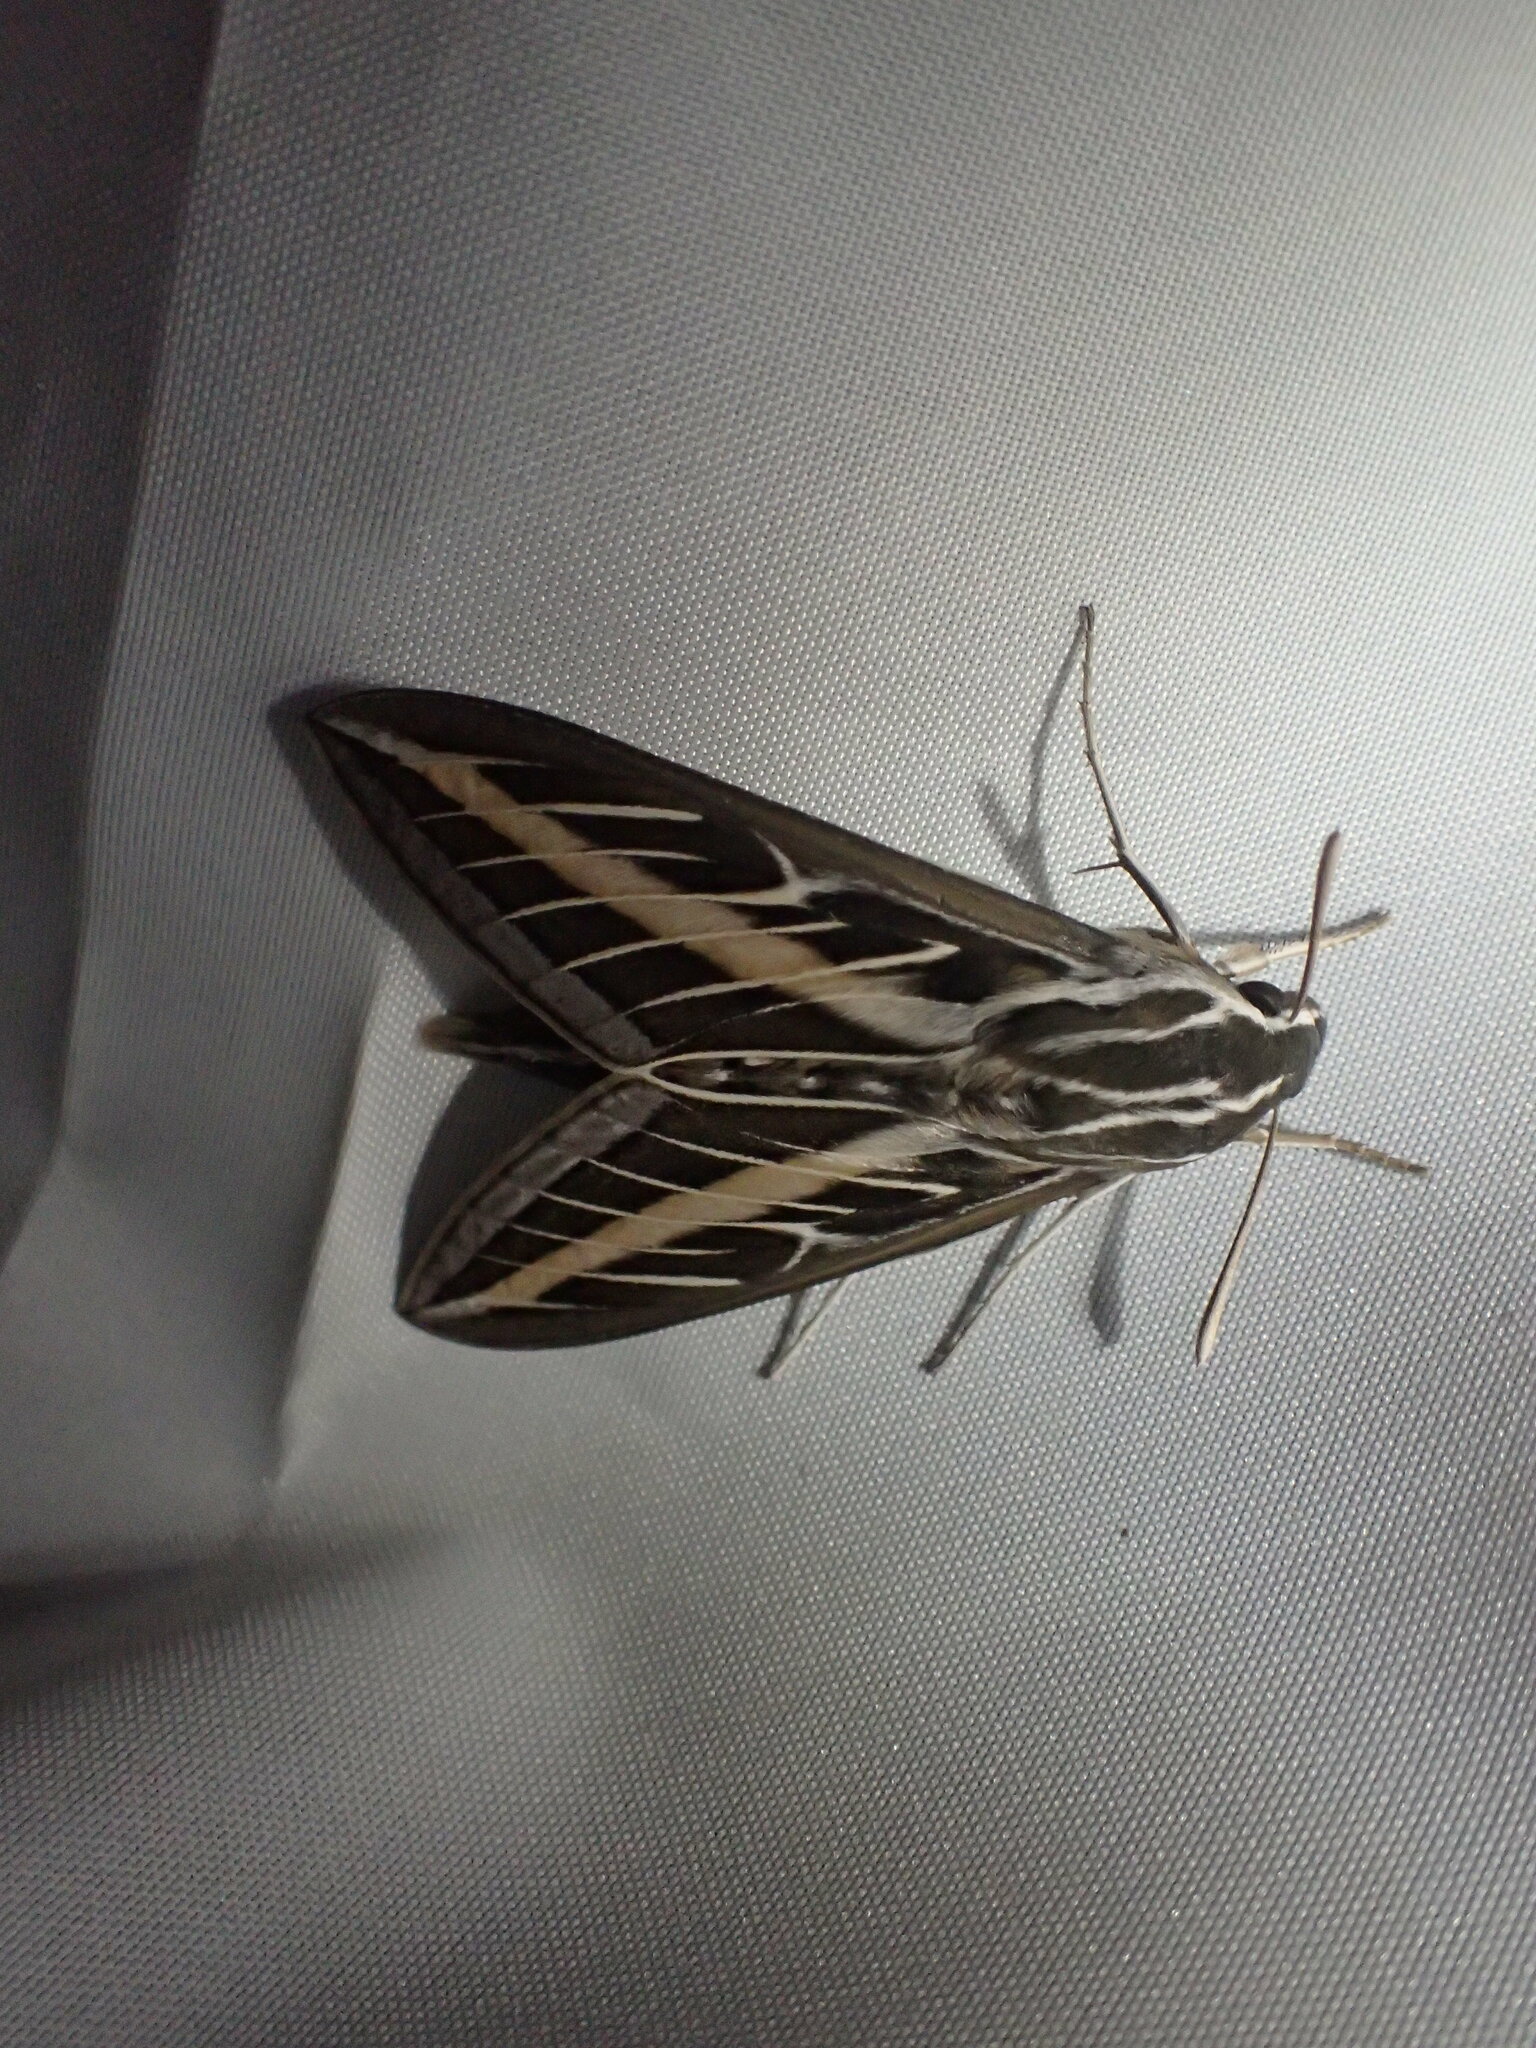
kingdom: Animalia
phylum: Arthropoda
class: Insecta
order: Lepidoptera
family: Sphingidae
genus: Hyles
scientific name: Hyles lineata
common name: White-lined sphinx
